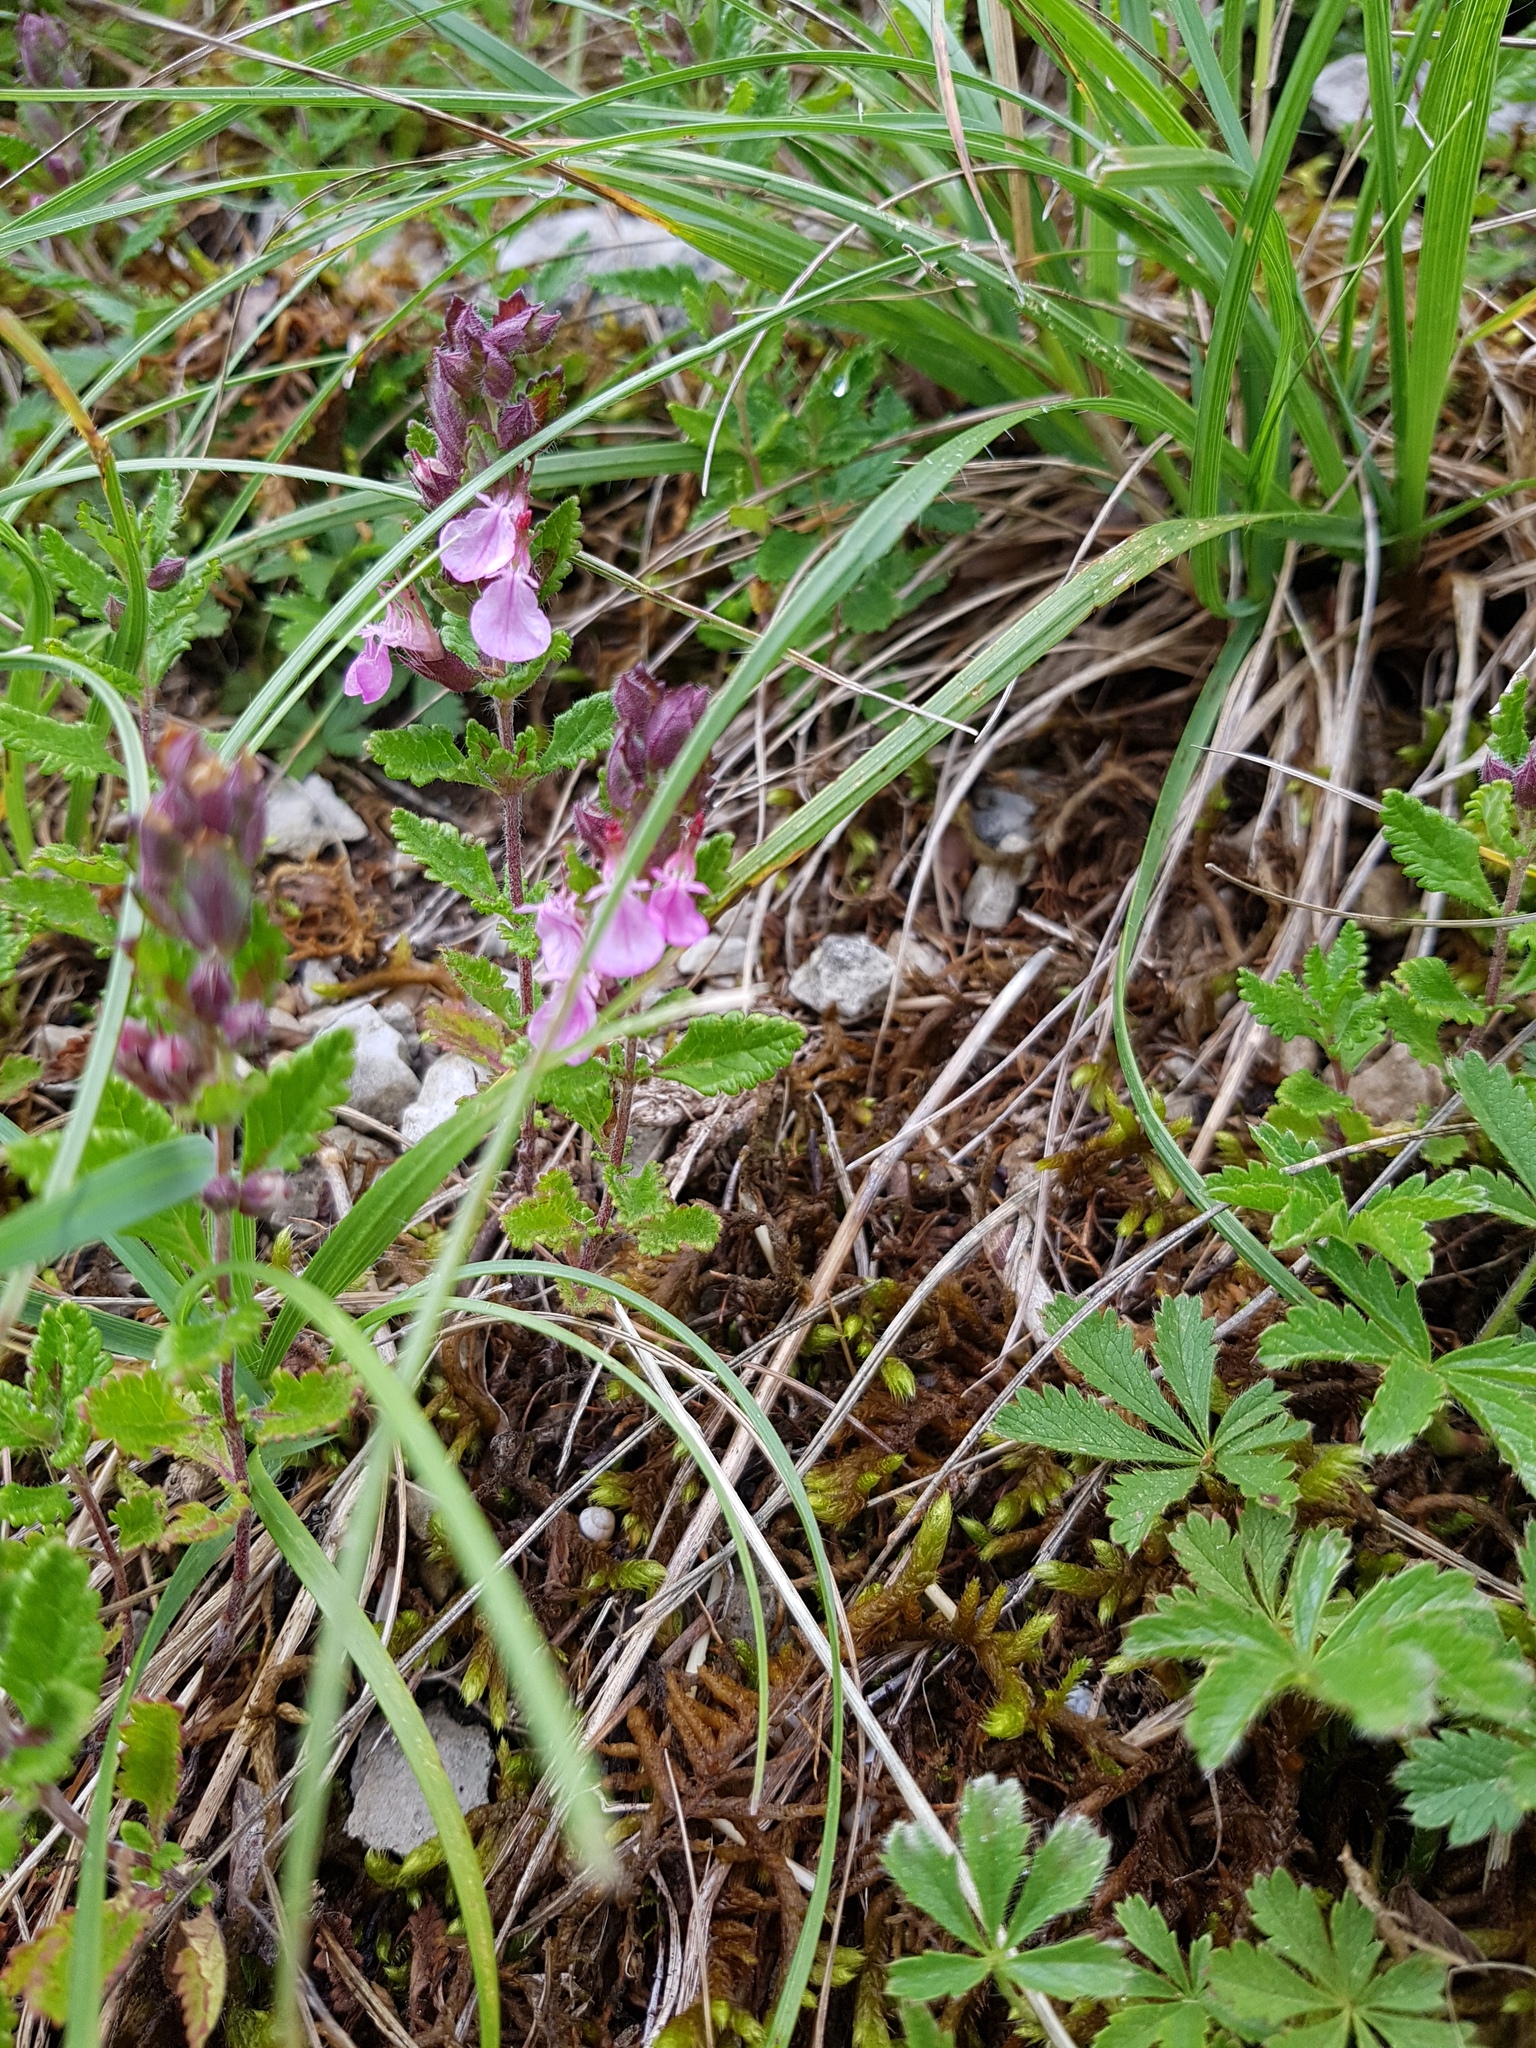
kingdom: Plantae
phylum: Tracheophyta
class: Magnoliopsida
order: Lamiales
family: Lamiaceae
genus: Teucrium
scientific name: Teucrium chamaedrys
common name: Wall germander
